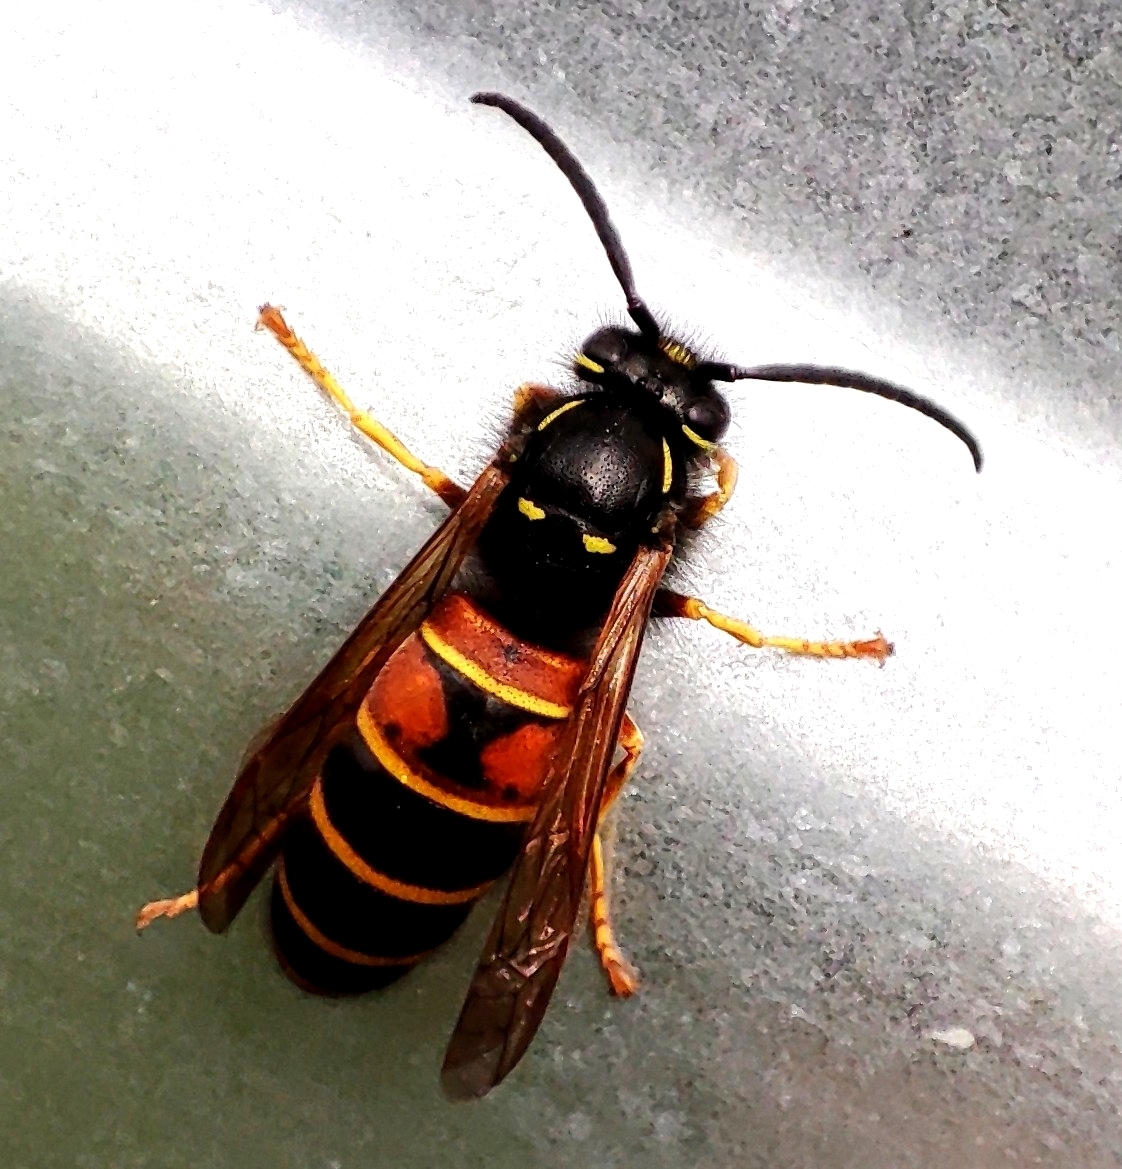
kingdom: Animalia
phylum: Arthropoda
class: Insecta
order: Hymenoptera
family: Vespidae
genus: Vespula
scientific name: Vespula rufa
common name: Red wasp
